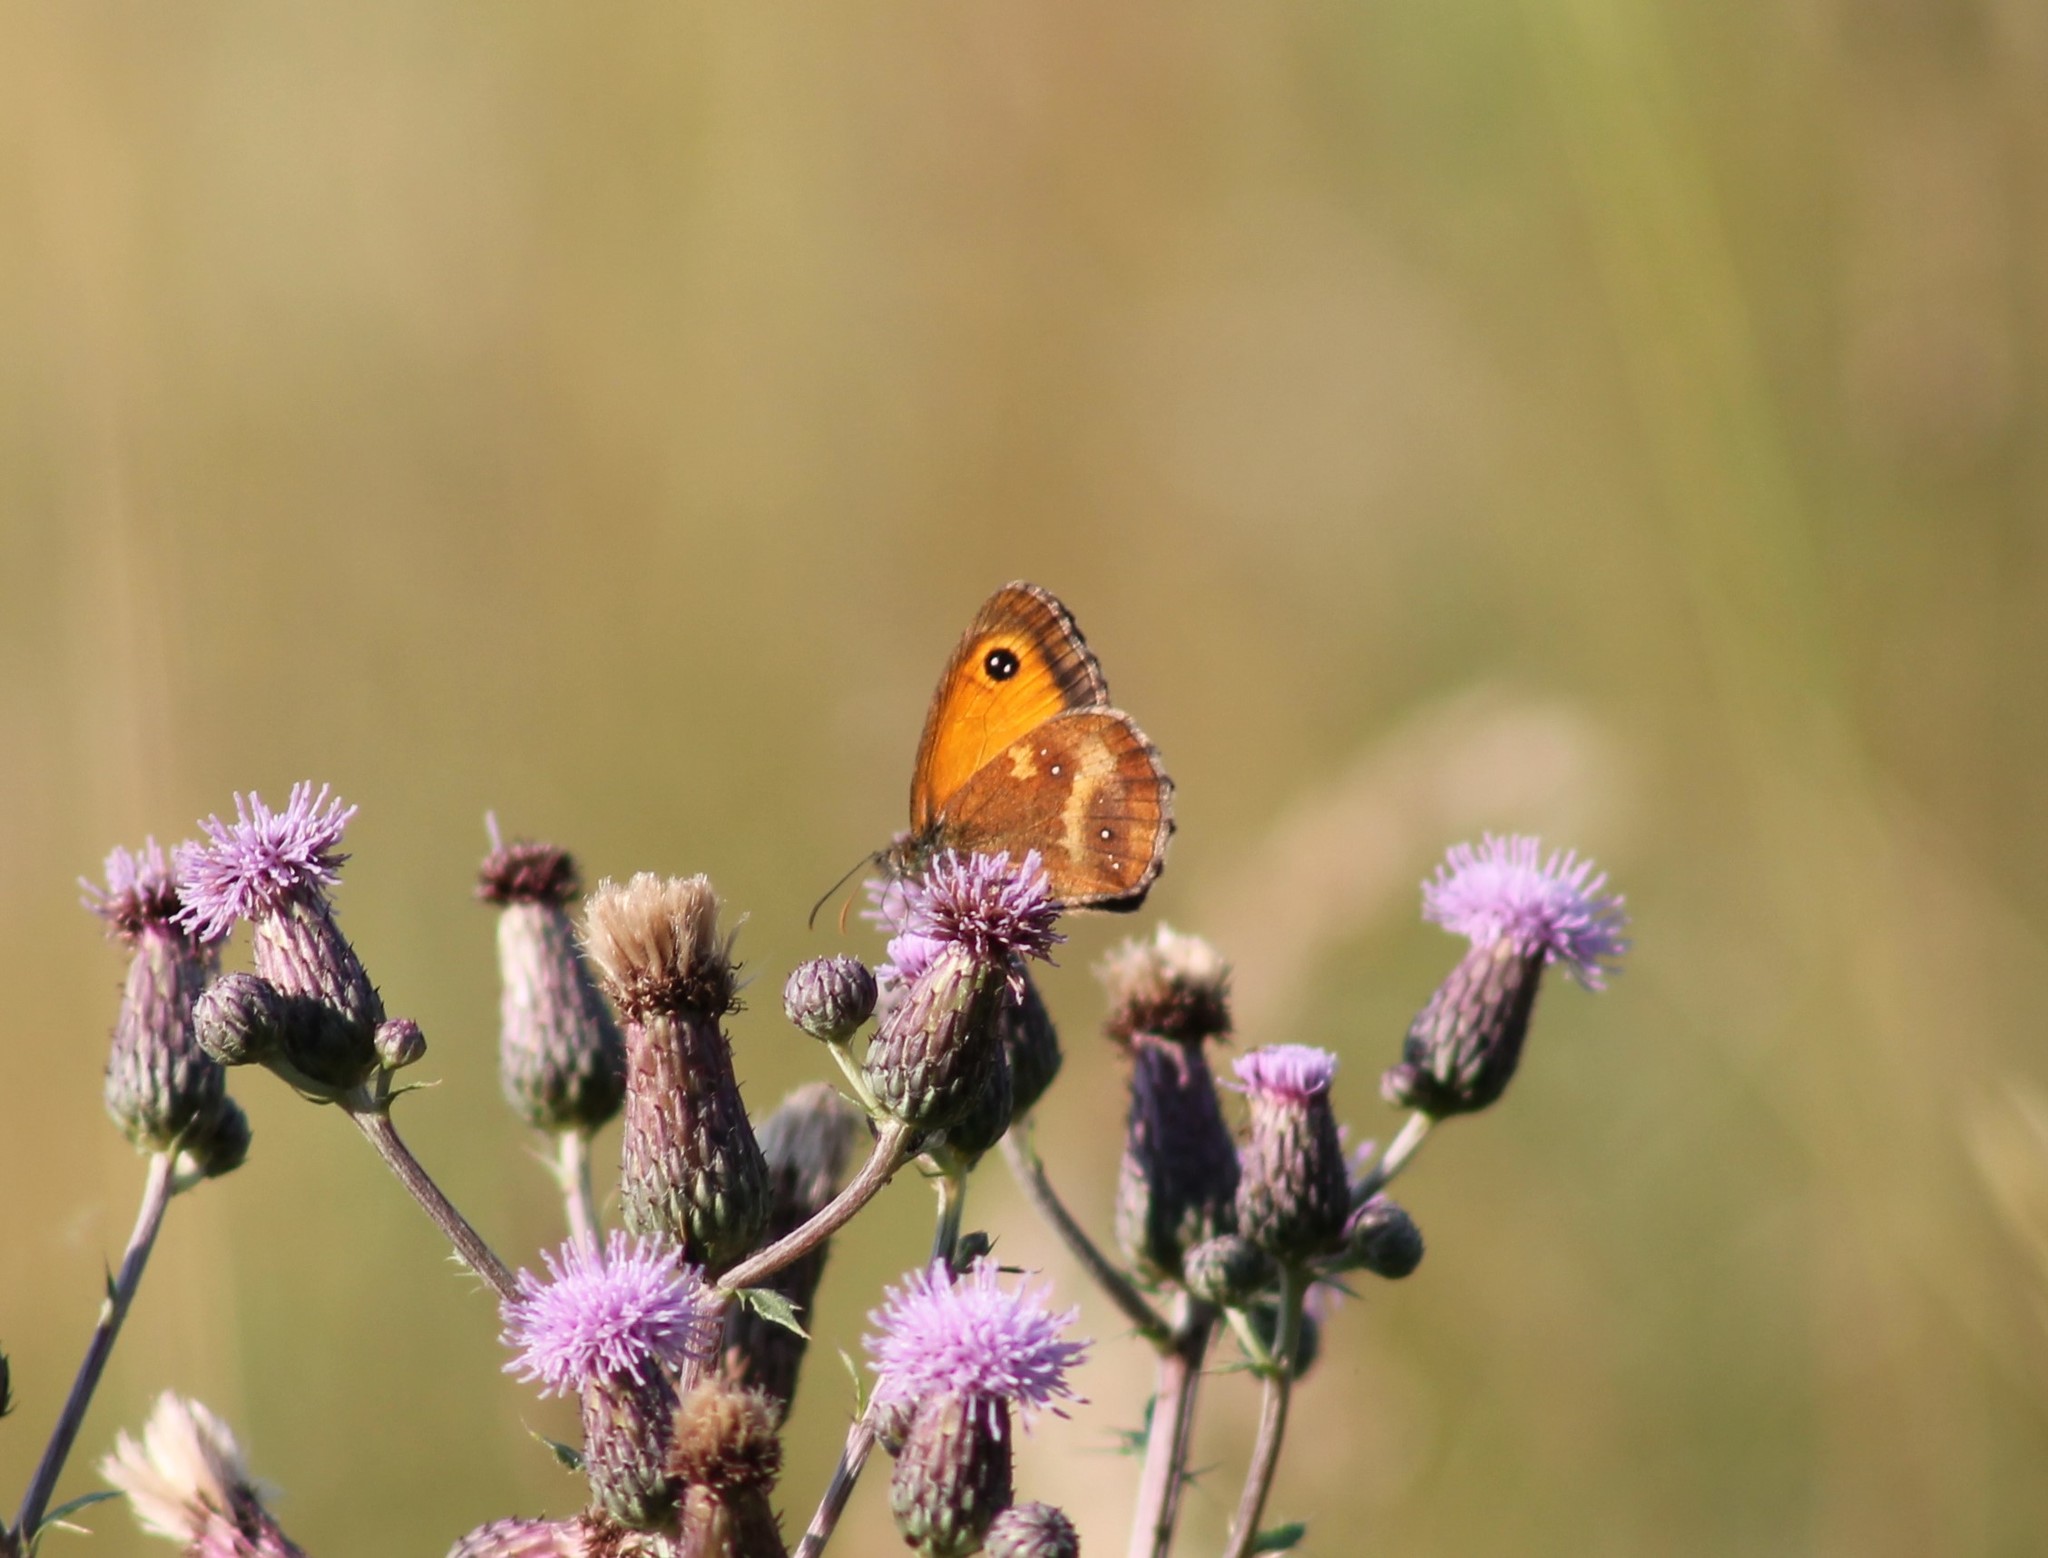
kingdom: Animalia
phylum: Arthropoda
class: Insecta
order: Lepidoptera
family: Nymphalidae
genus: Pyronia
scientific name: Pyronia tithonus
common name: Gatekeeper
